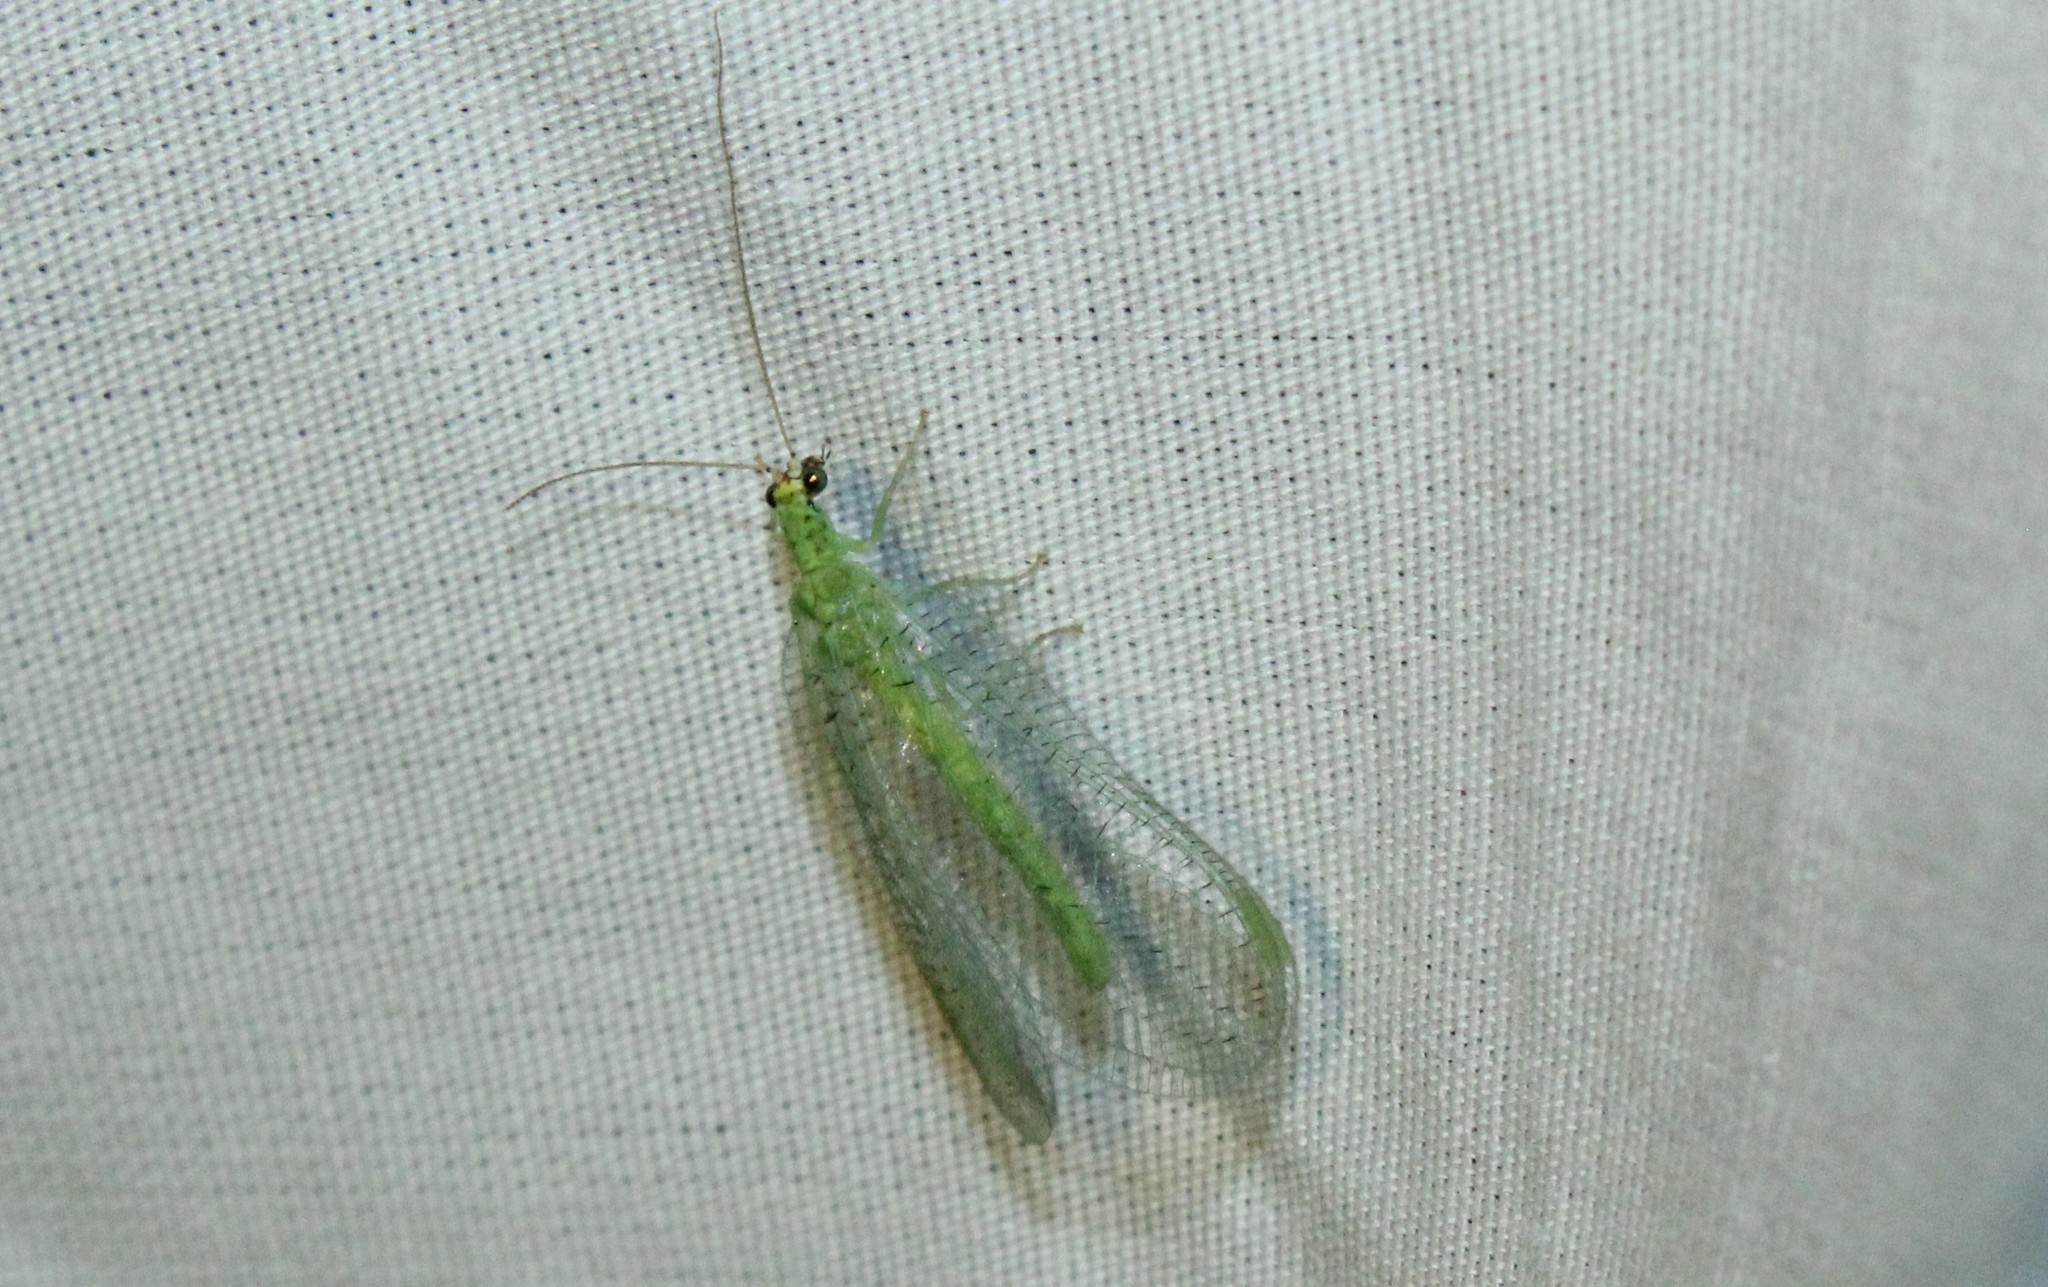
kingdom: Animalia
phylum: Arthropoda
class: Insecta
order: Neuroptera
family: Chrysopidae
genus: Chrysopa
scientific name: Chrysopa oculata
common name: Golden-eyed lacewing
